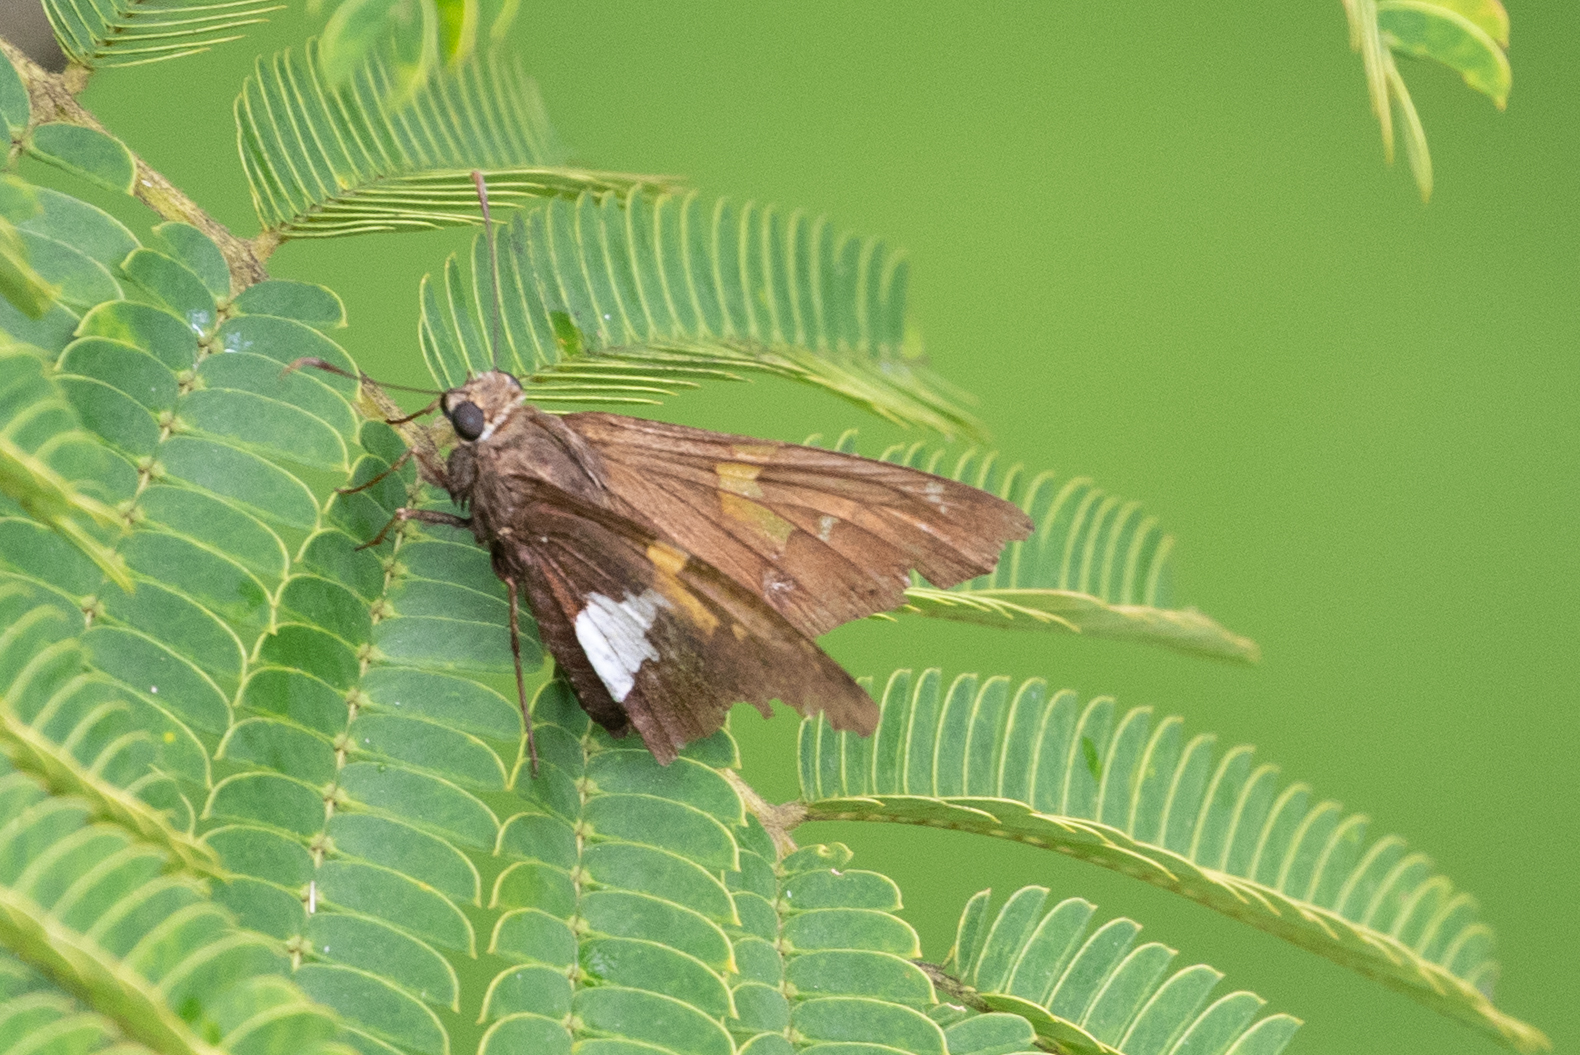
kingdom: Animalia
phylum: Arthropoda
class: Insecta
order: Lepidoptera
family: Hesperiidae
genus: Epargyreus
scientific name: Epargyreus clarus
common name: Silver-spotted skipper
